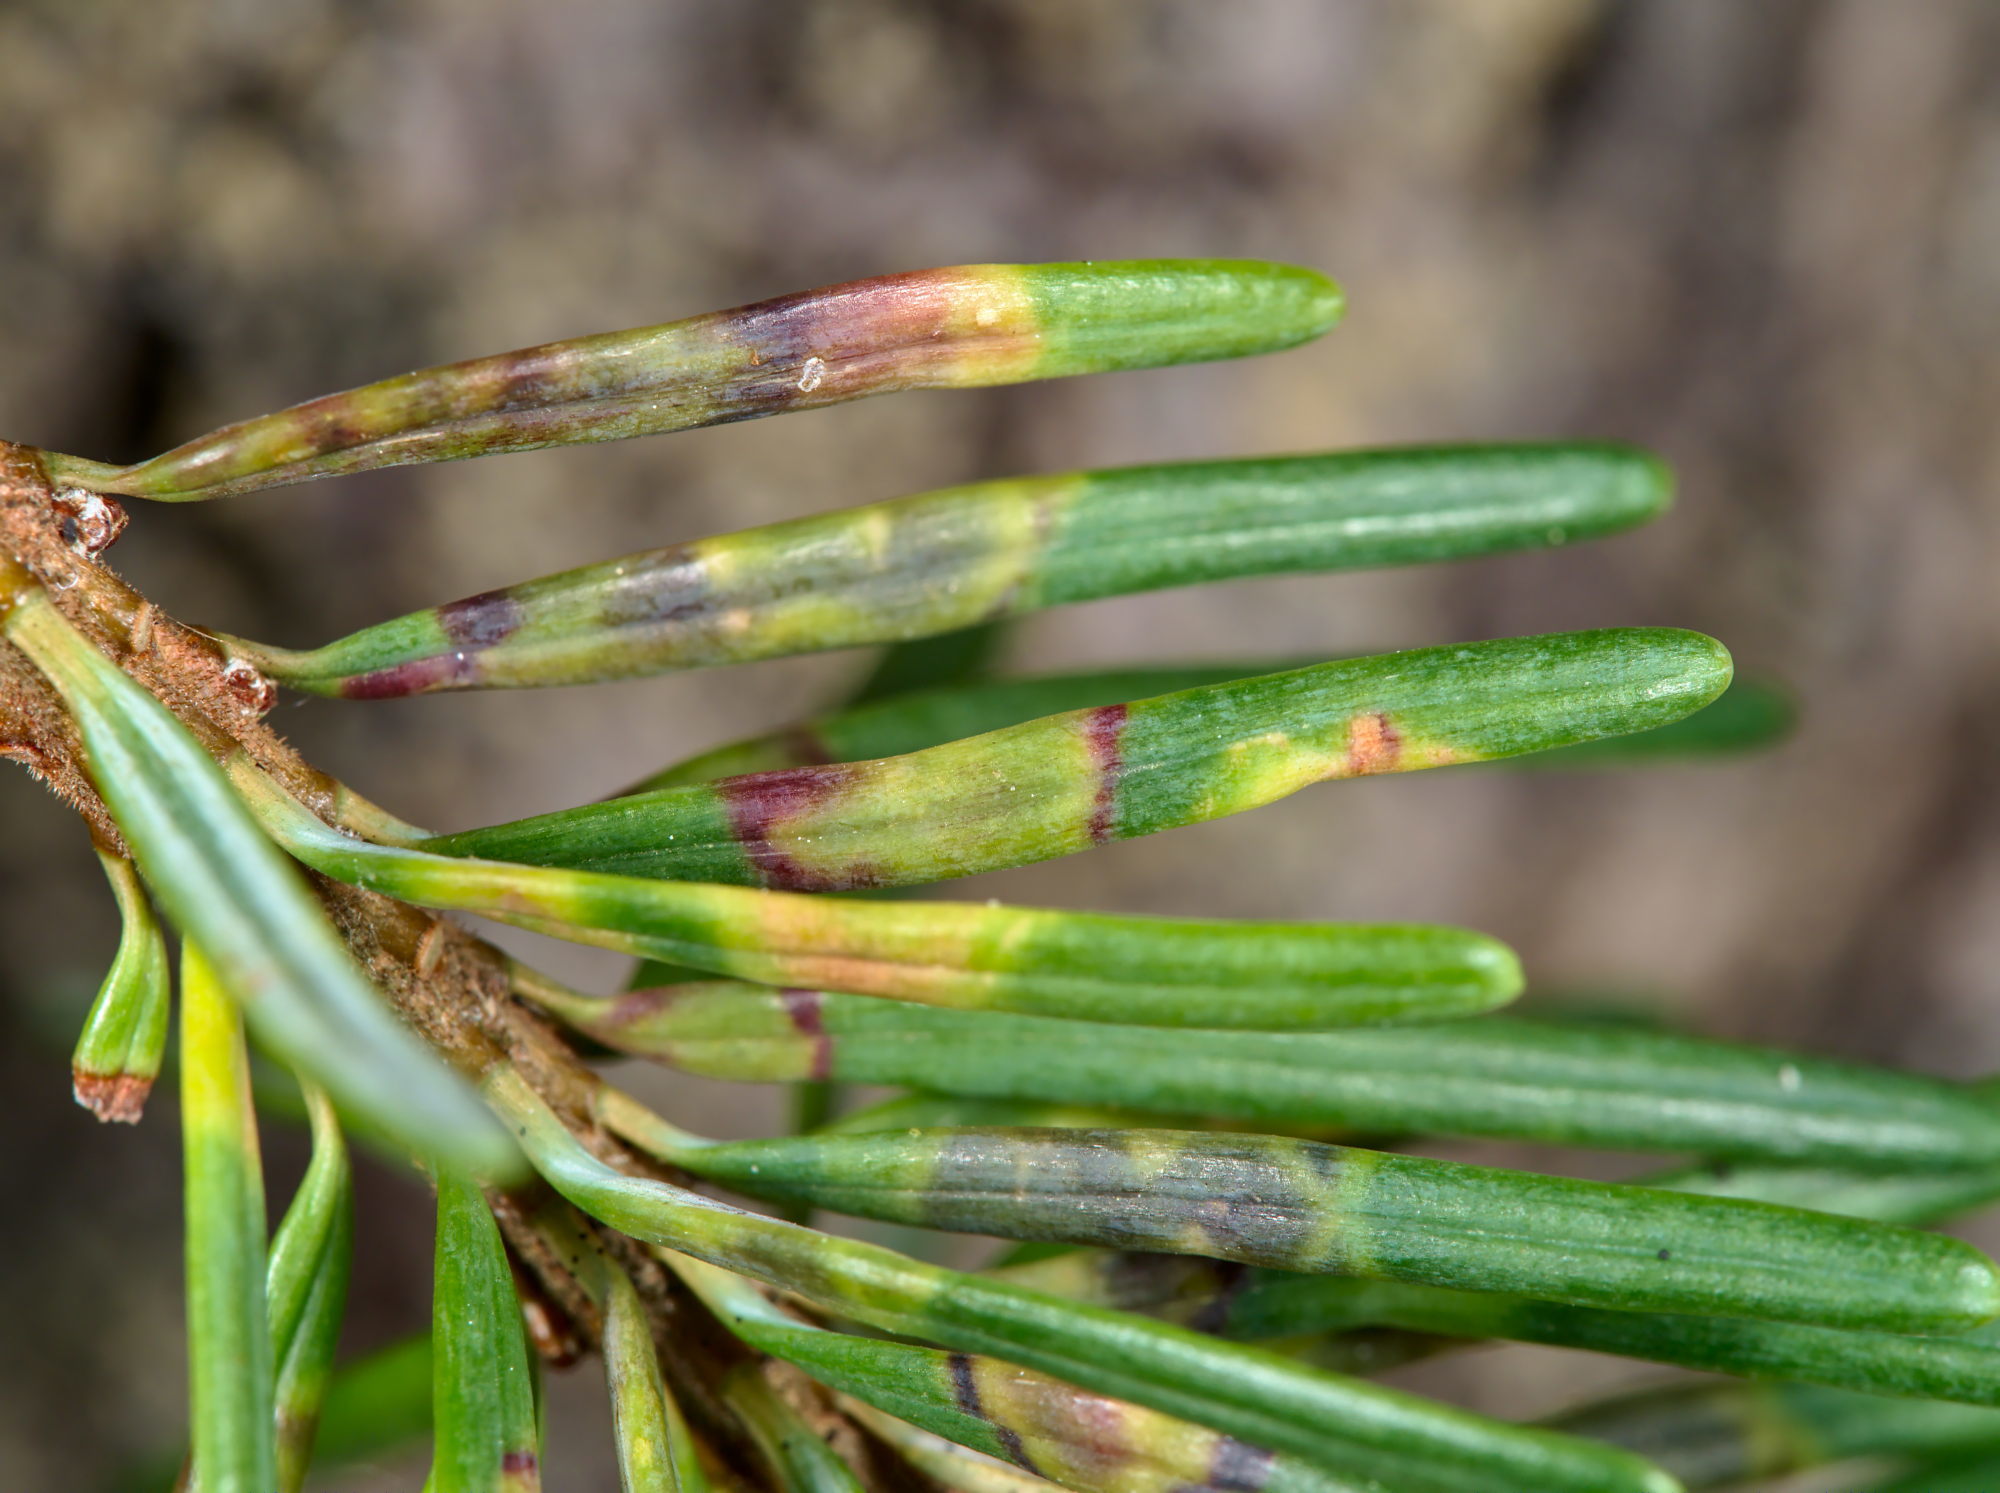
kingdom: Animalia
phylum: Arthropoda
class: Insecta
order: Diptera
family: Cecidomyiidae
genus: Contarinia
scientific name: Contarinia pseudotsugae
